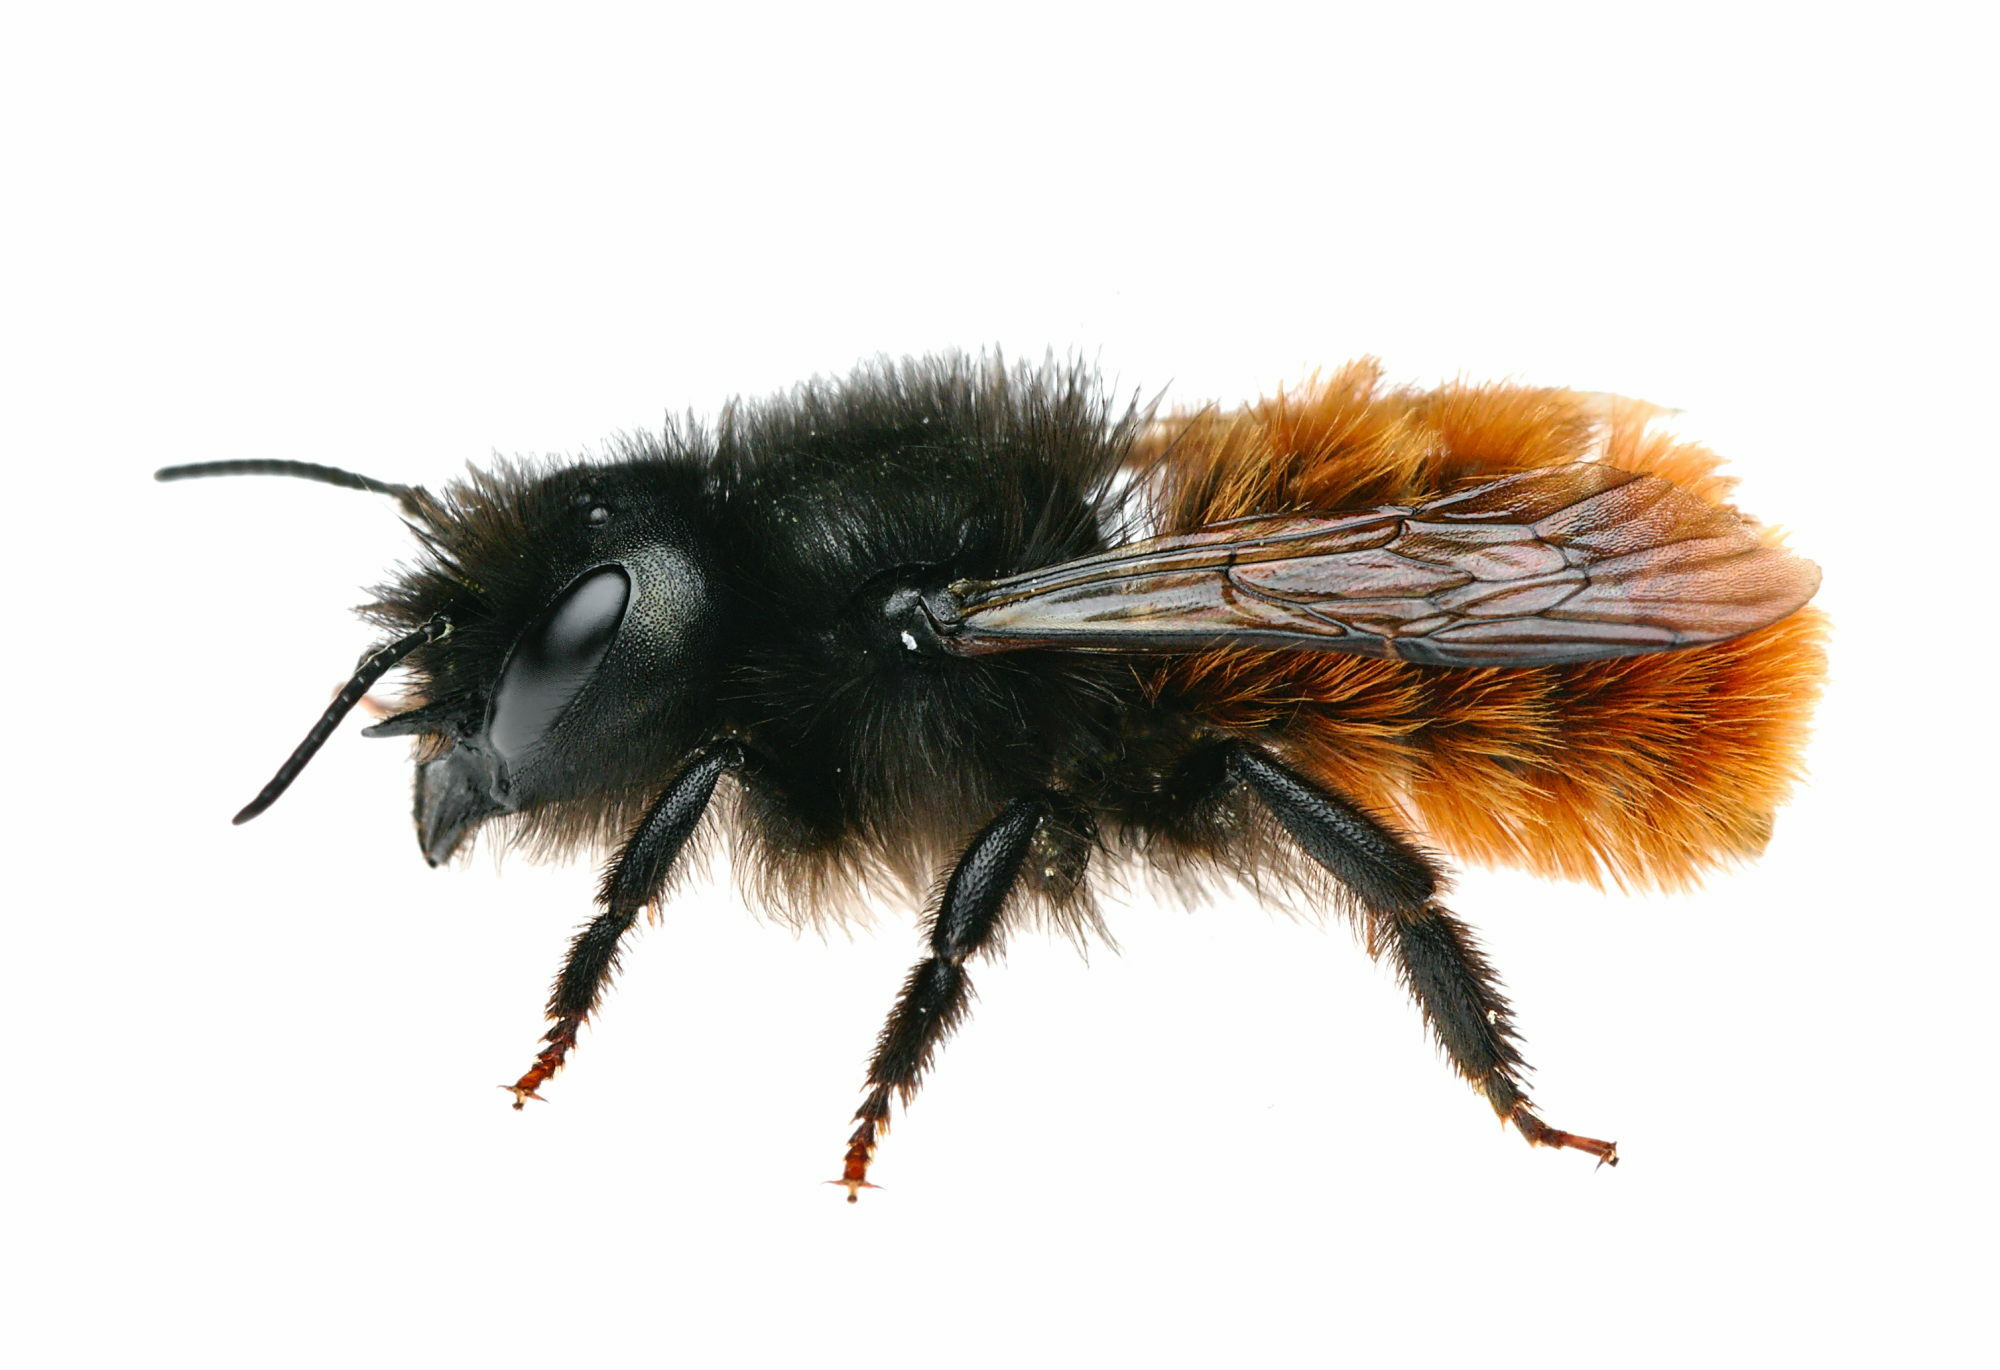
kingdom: Animalia
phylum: Arthropoda
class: Insecta
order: Hymenoptera
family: Megachilidae
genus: Osmia
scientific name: Osmia cornuta
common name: Mason bee
